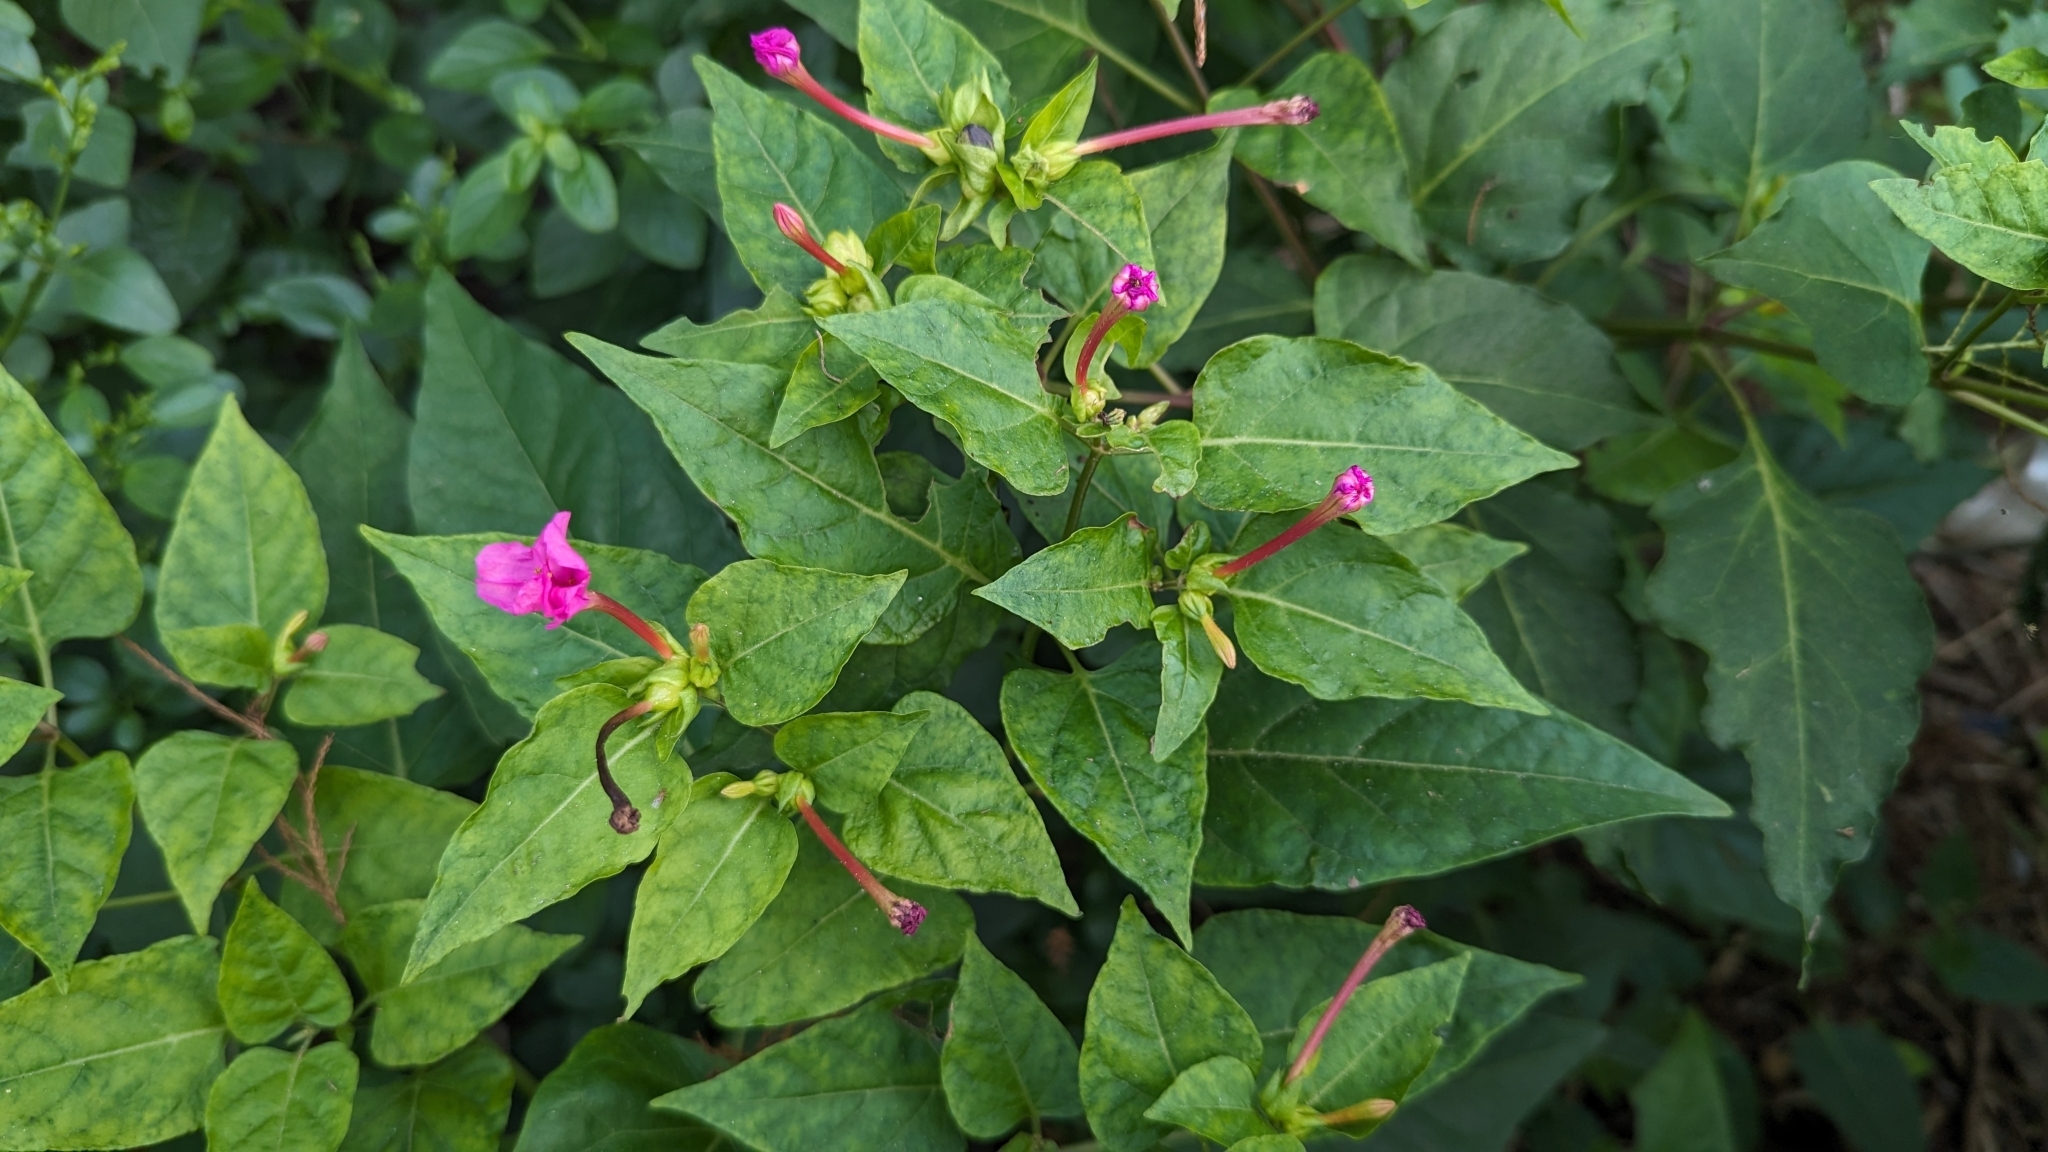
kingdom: Plantae
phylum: Tracheophyta
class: Magnoliopsida
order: Caryophyllales
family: Nyctaginaceae
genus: Mirabilis
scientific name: Mirabilis jalapa
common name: Marvel-of-peru
